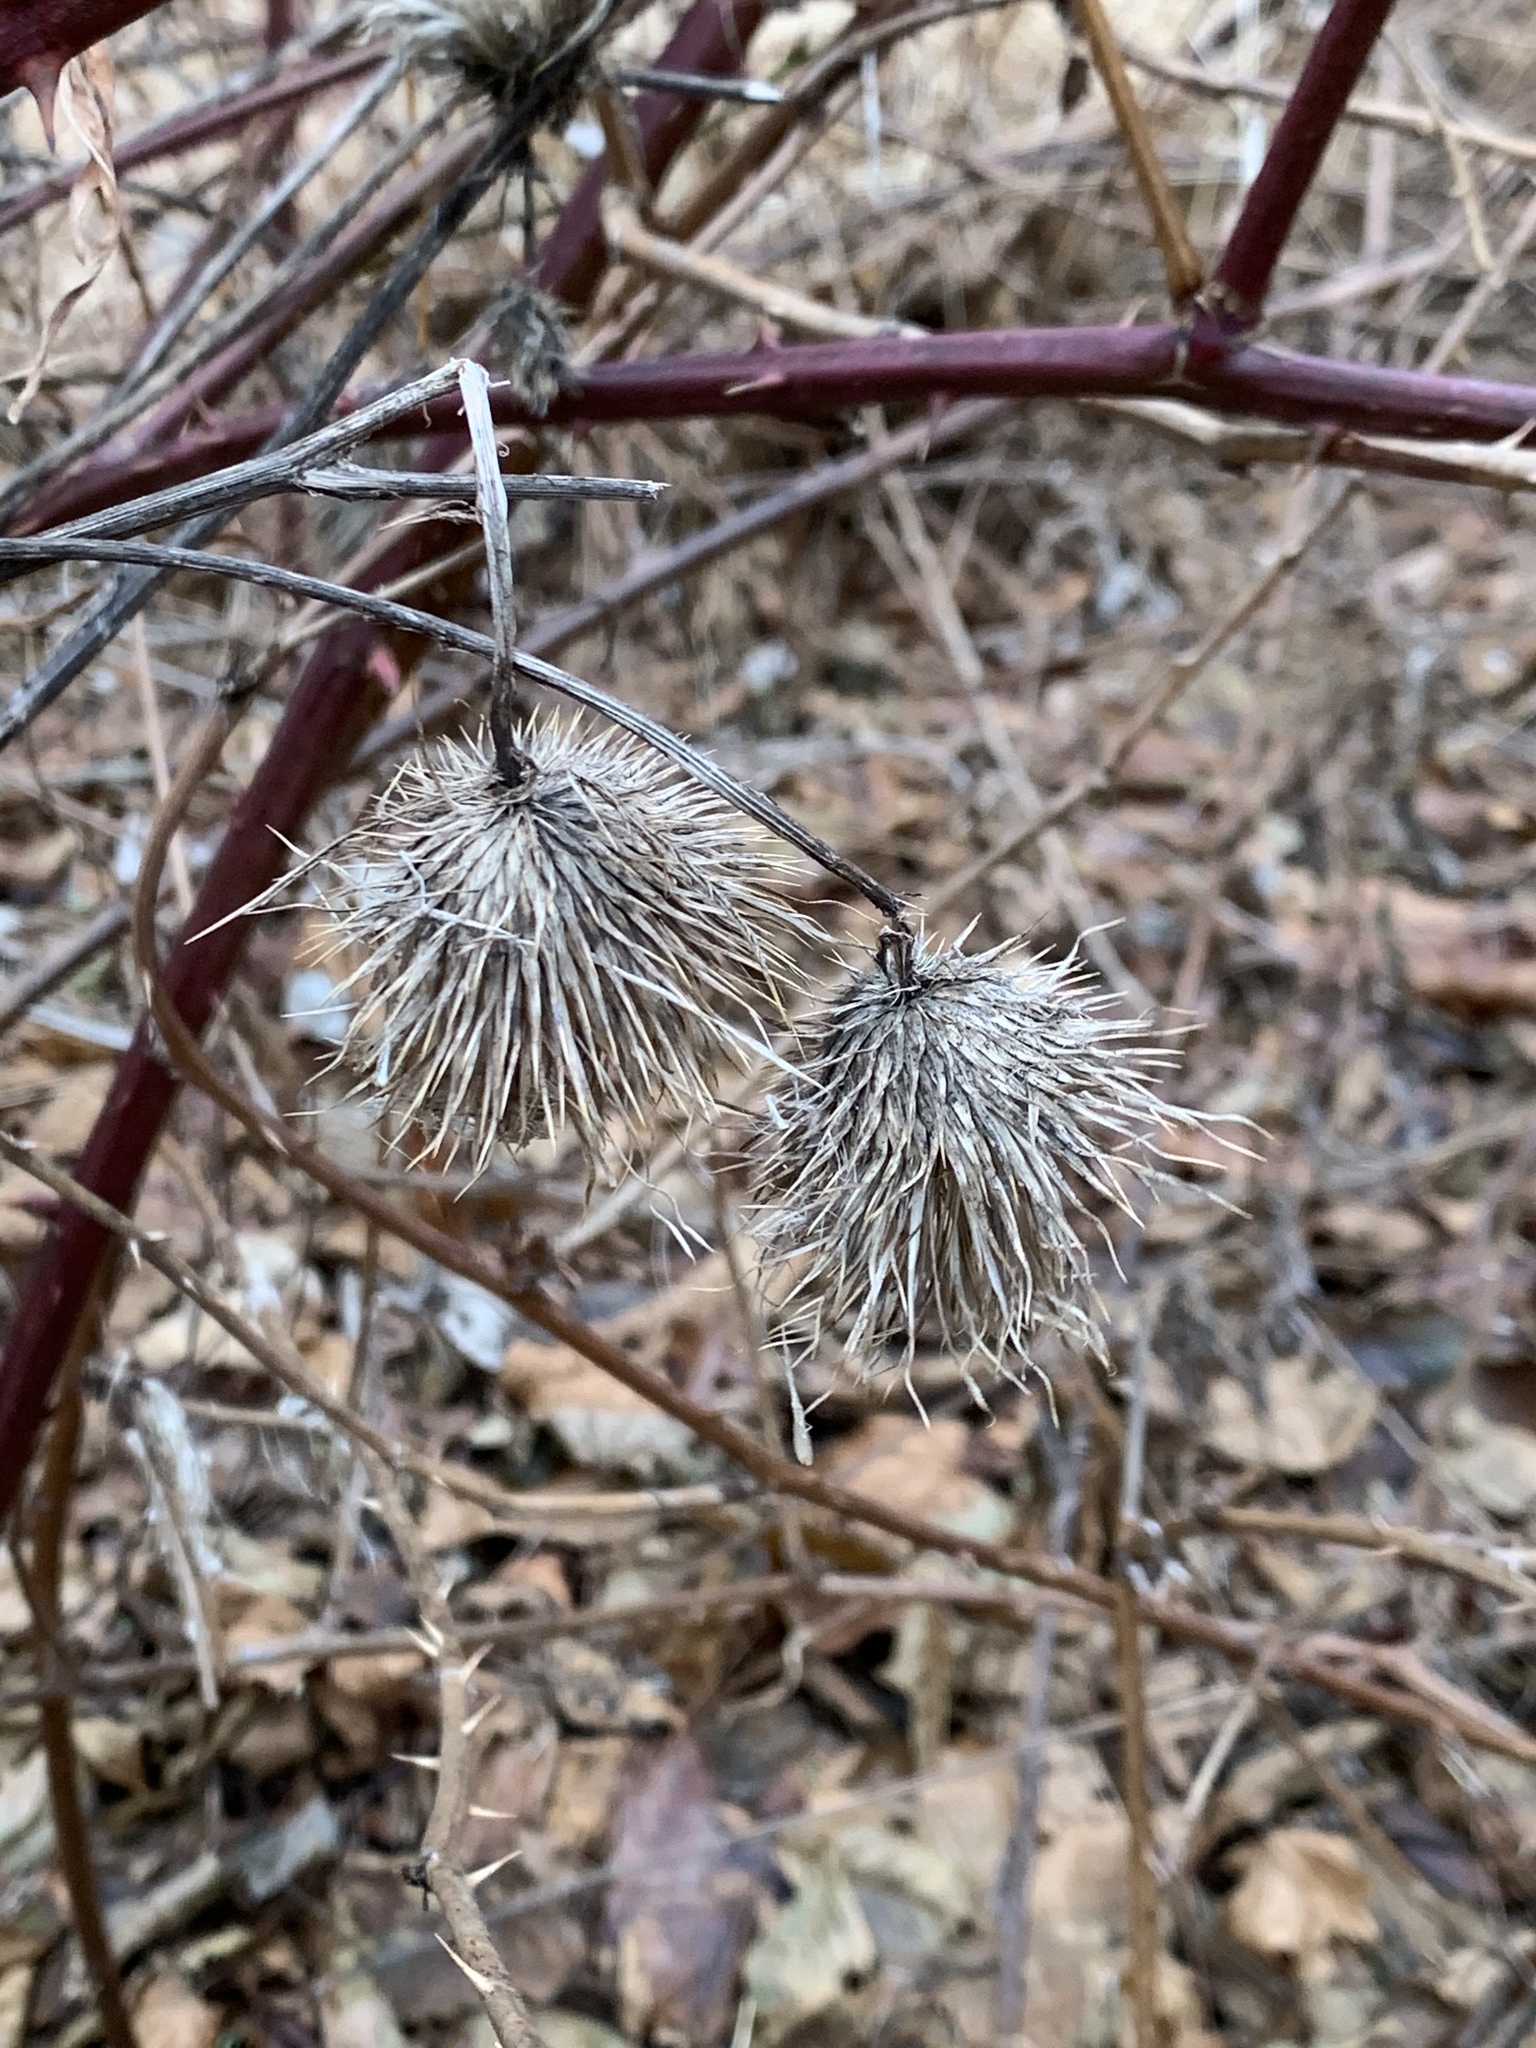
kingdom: Plantae
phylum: Tracheophyta
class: Magnoliopsida
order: Asterales
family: Asteraceae
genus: Cirsium
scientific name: Cirsium vulgare
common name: Bull thistle
